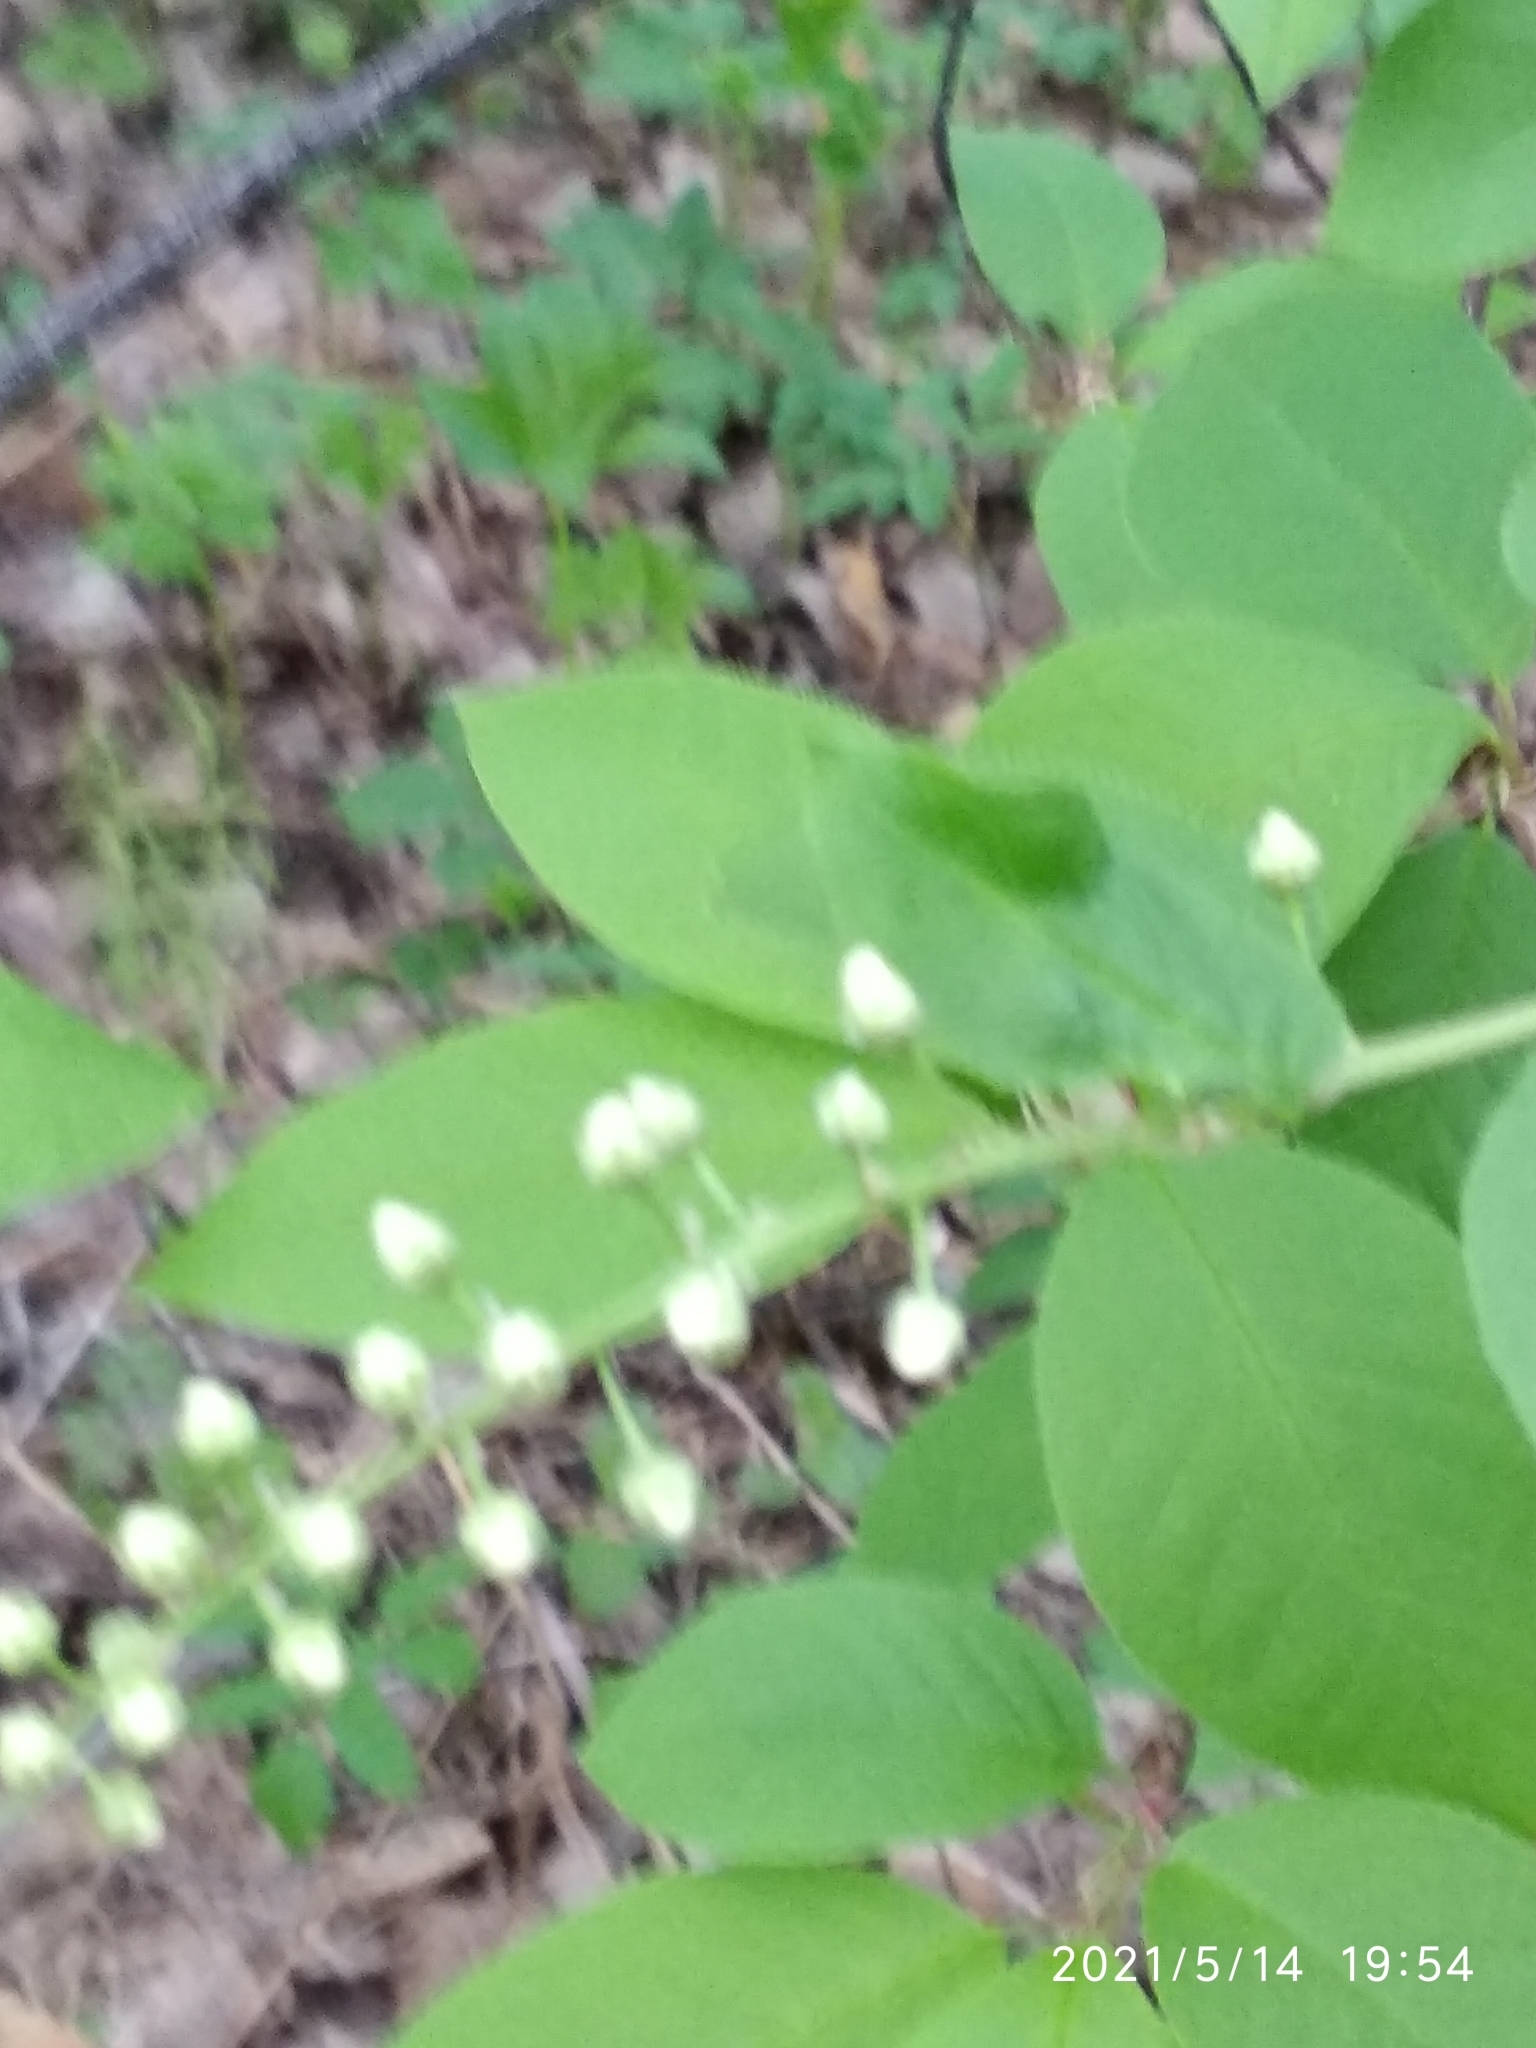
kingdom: Plantae
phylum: Tracheophyta
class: Magnoliopsida
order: Rosales
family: Rosaceae
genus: Prunus
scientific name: Prunus padus
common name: Bird cherry
